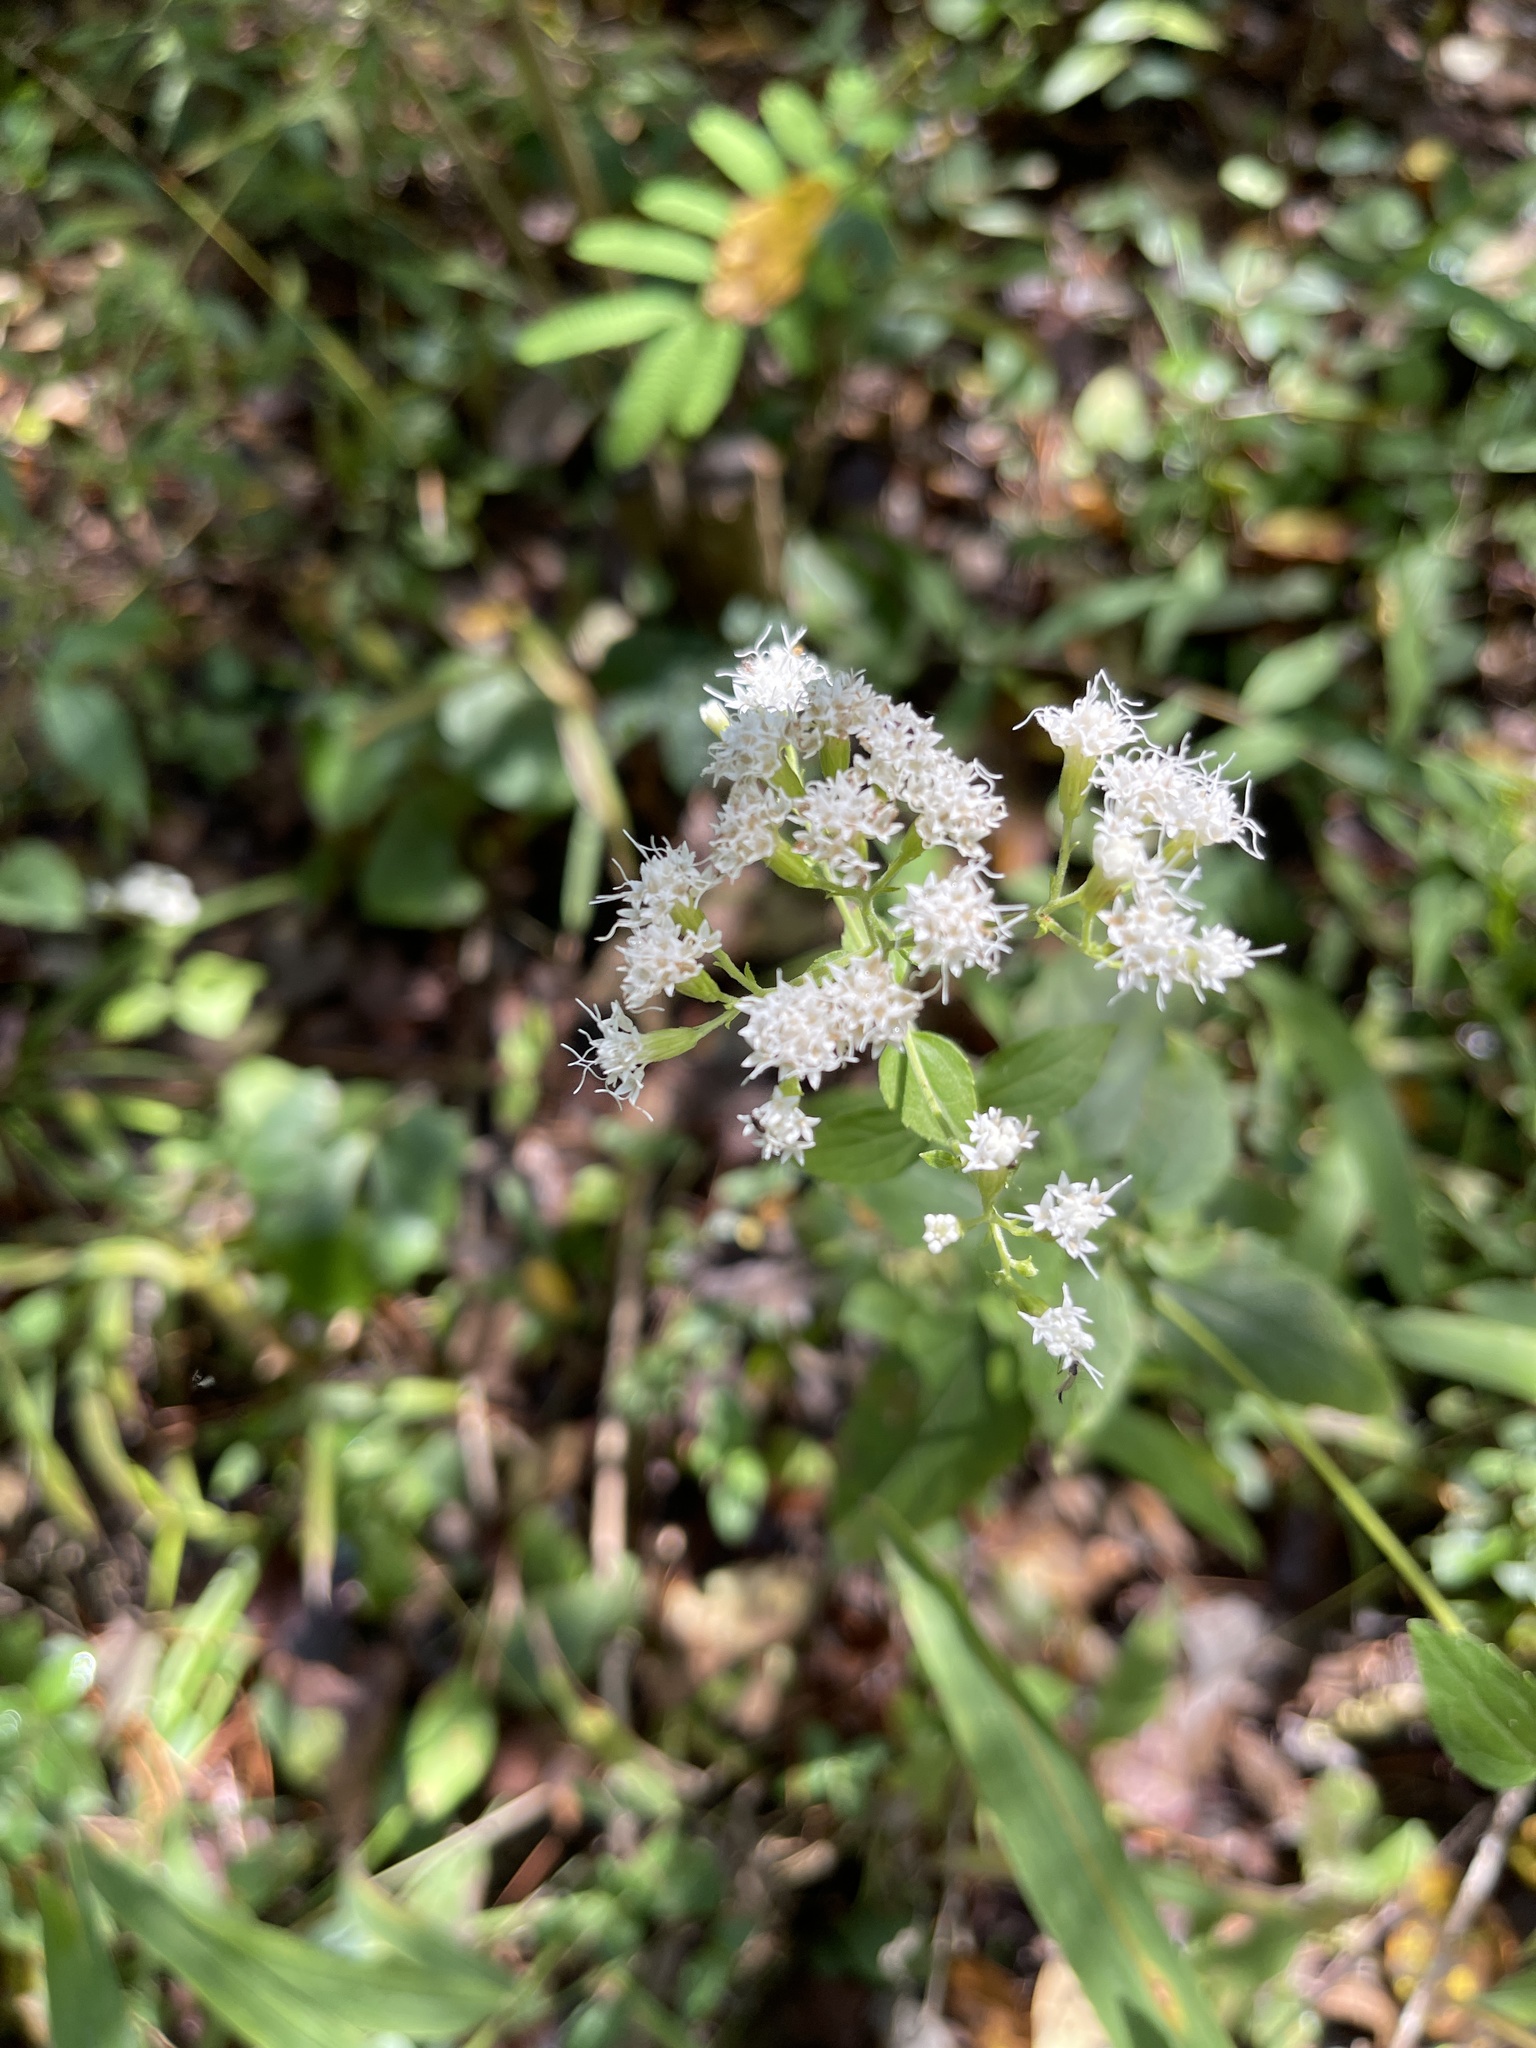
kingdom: Plantae
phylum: Tracheophyta
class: Magnoliopsida
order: Asterales
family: Asteraceae
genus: Ageratina
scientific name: Ageratina aromatica
